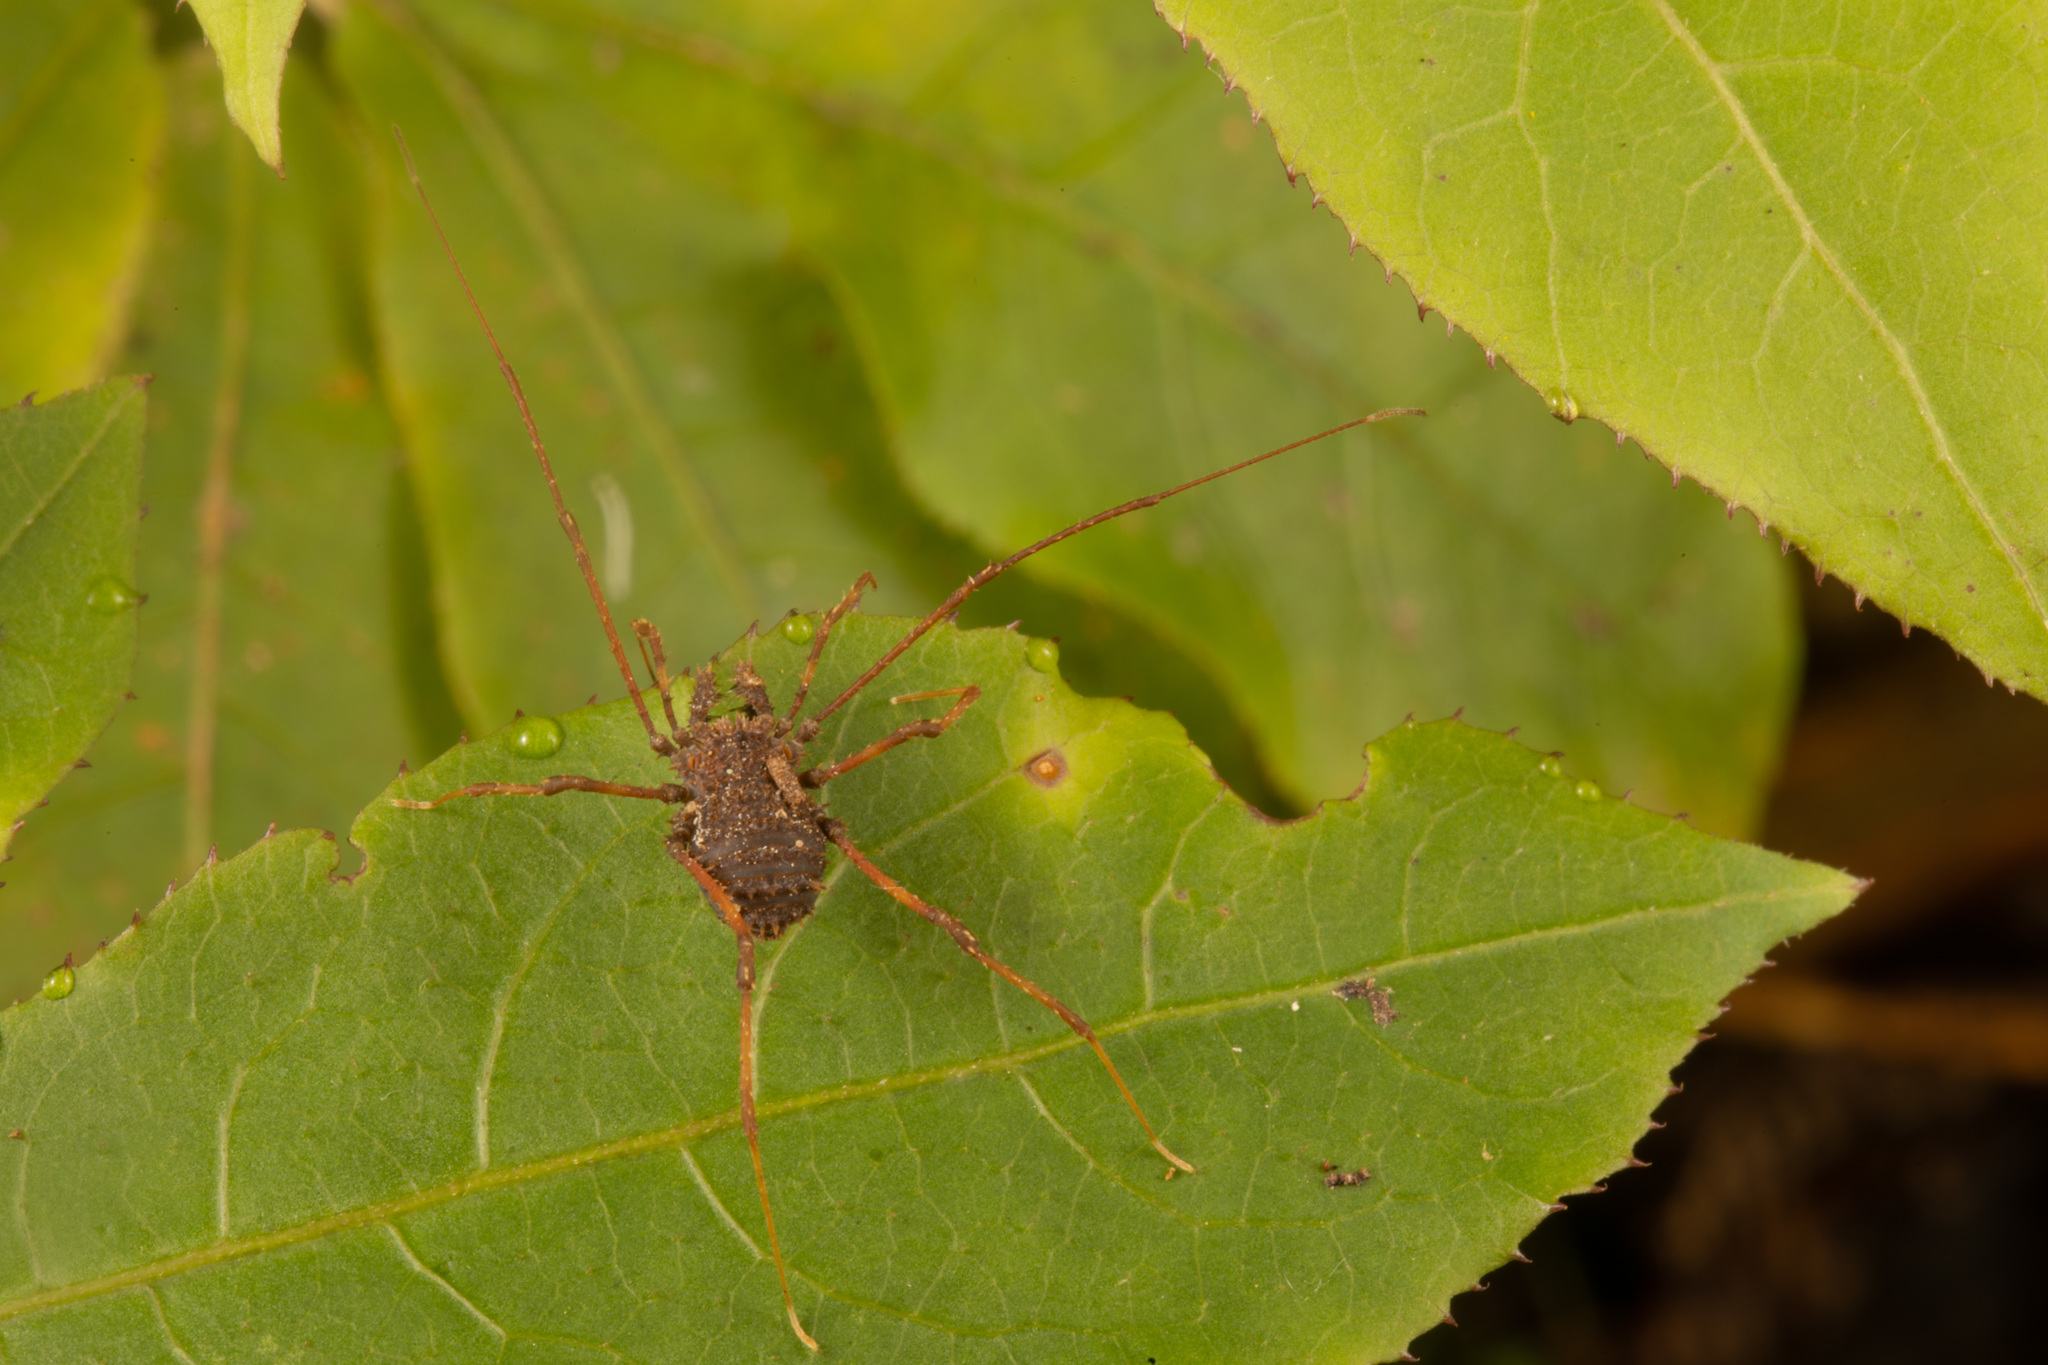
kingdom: Animalia
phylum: Arthropoda
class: Arachnida
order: Opiliones
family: Triaenonychidae
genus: Triregia
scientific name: Triregia fairburni
